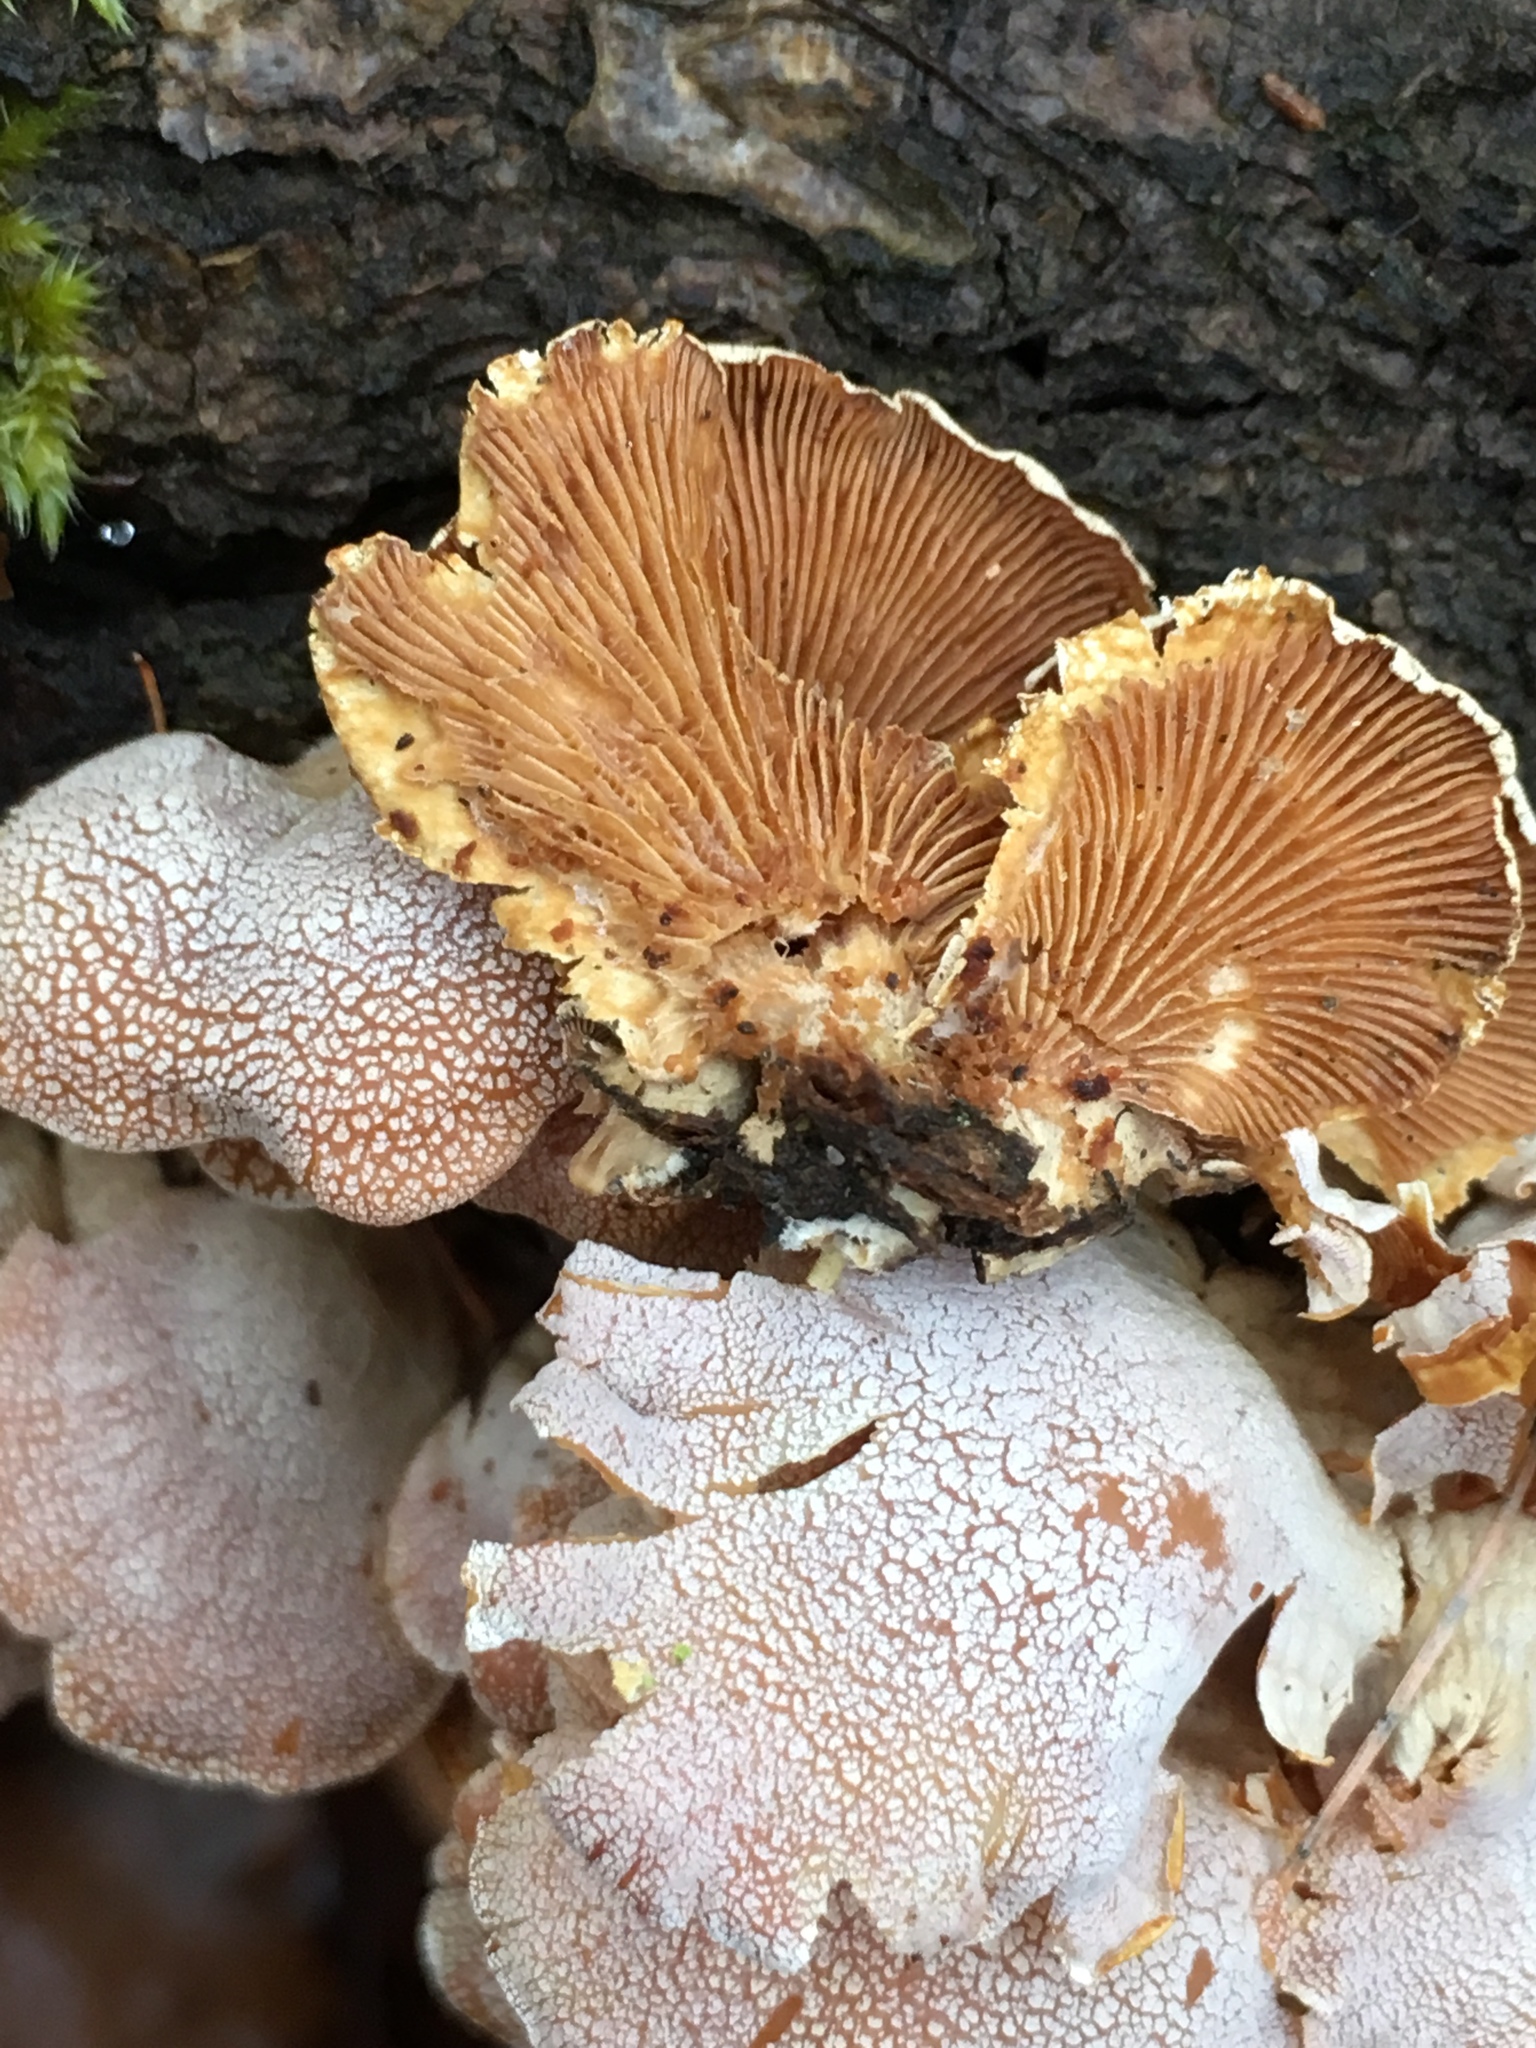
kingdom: Fungi
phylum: Basidiomycota
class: Agaricomycetes
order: Agaricales
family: Mycenaceae
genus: Panellus
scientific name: Panellus stipticus
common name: Bitter oysterling
